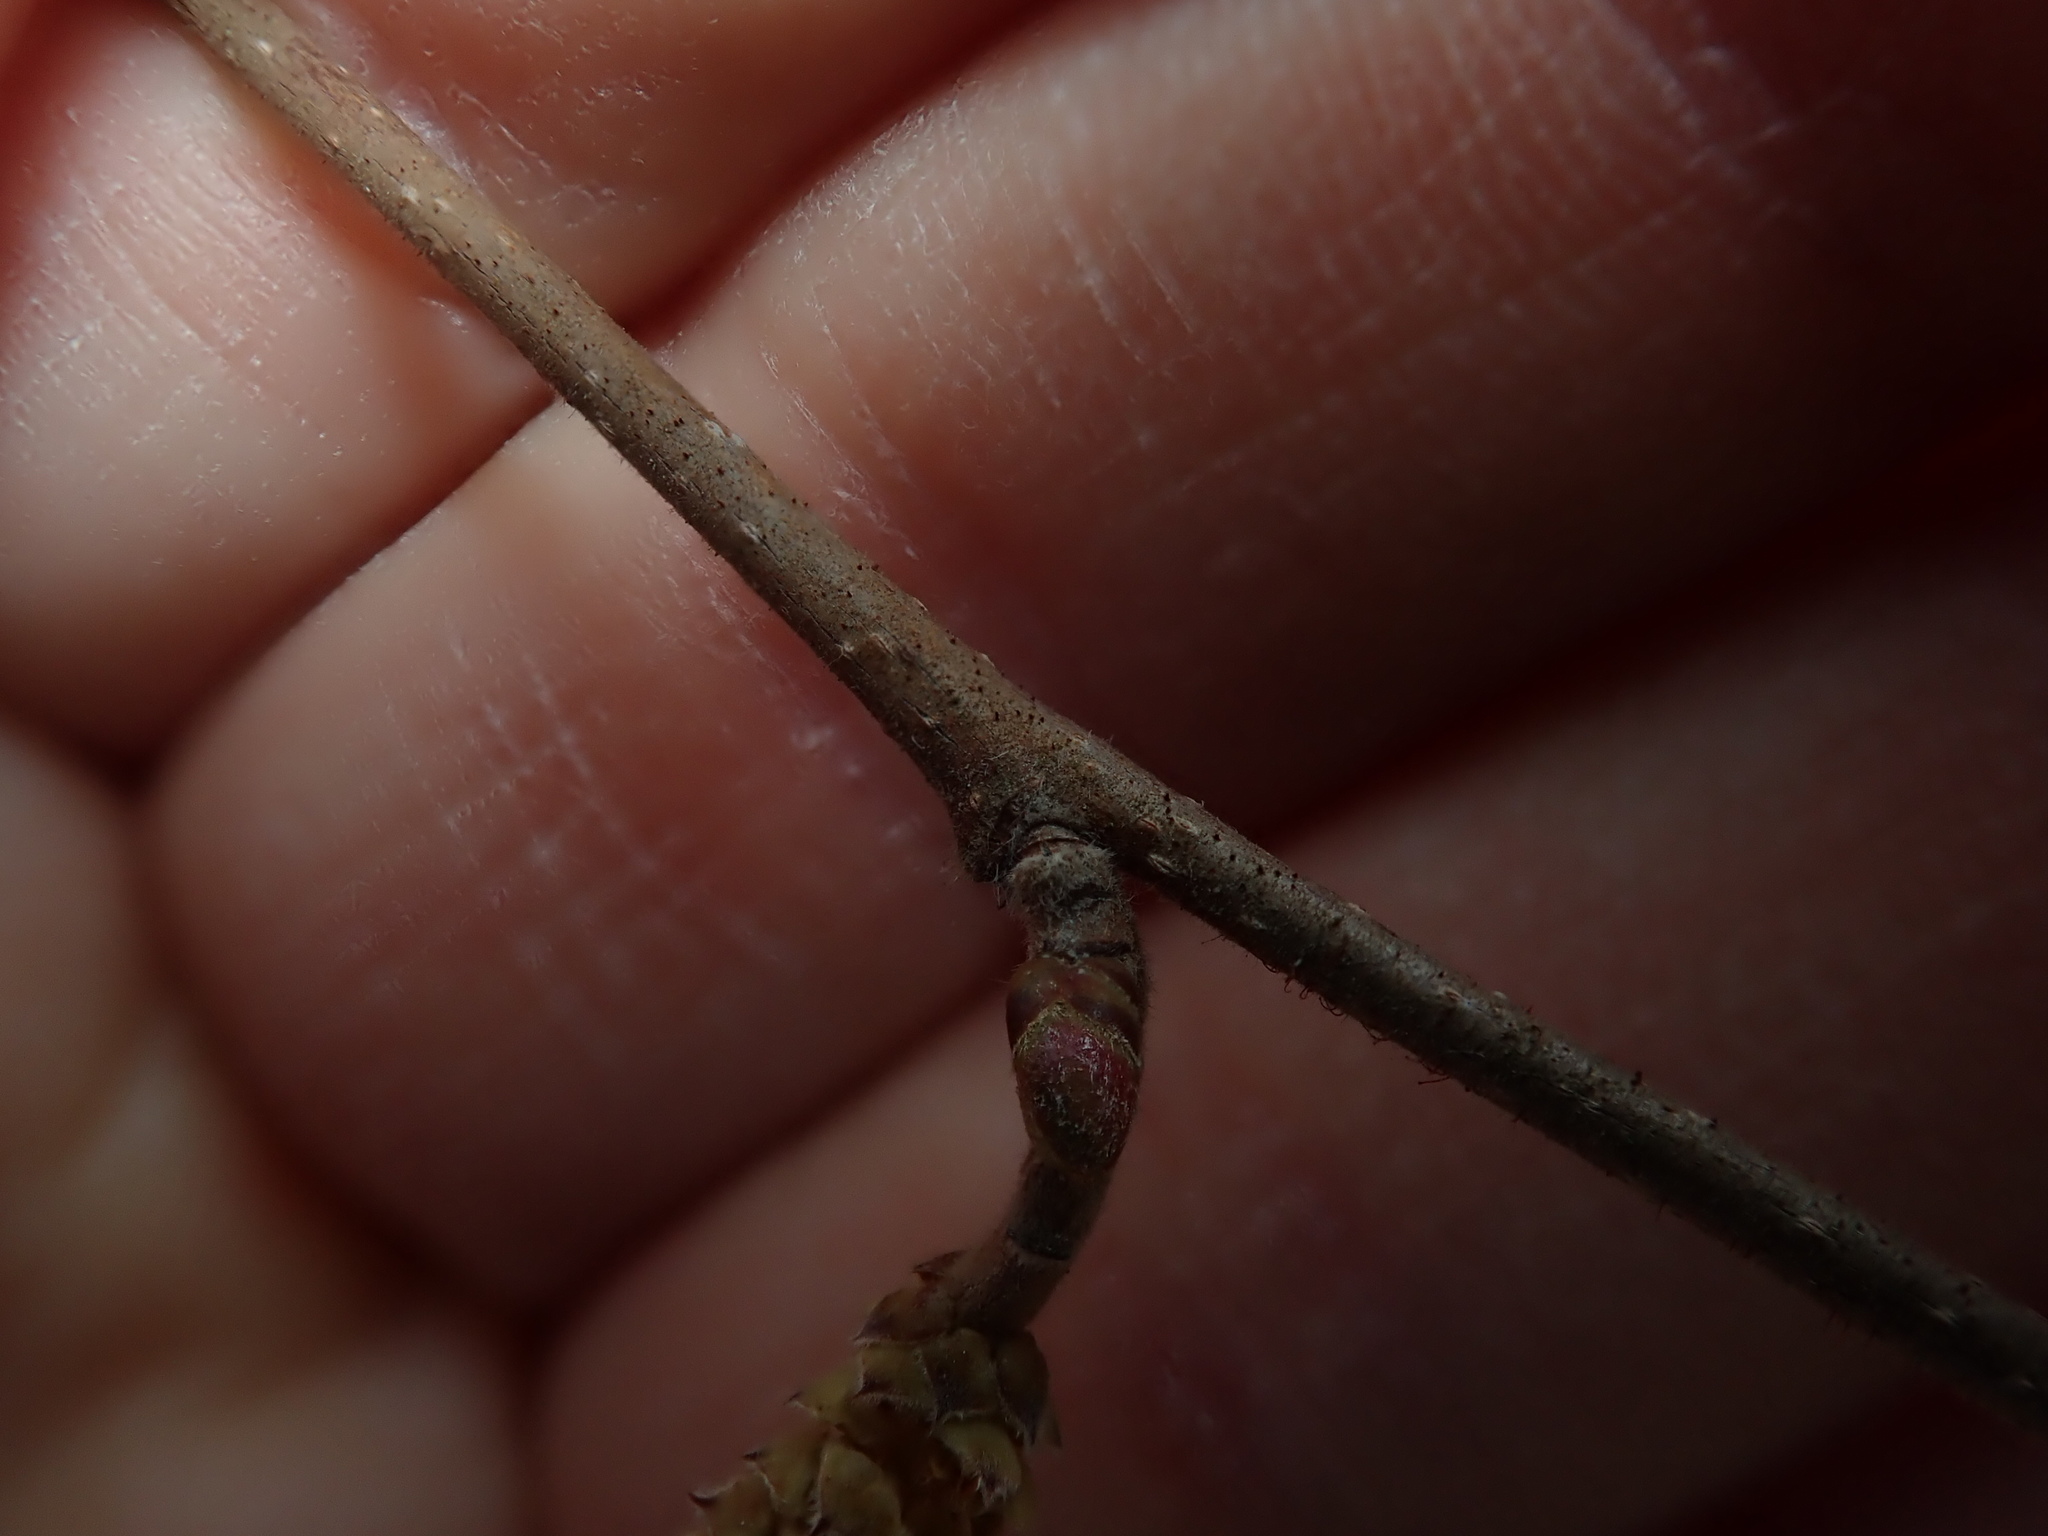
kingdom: Plantae
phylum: Tracheophyta
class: Magnoliopsida
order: Fagales
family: Betulaceae
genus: Corylus
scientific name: Corylus americana
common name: American hazel
